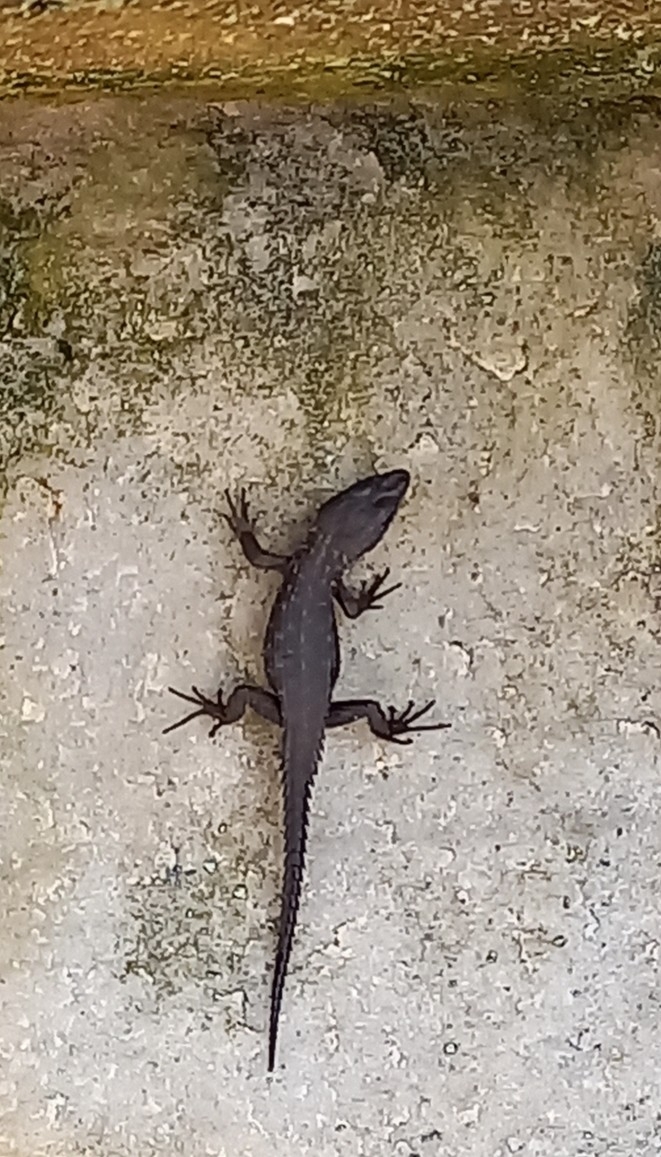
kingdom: Animalia
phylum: Chordata
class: Squamata
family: Cordylidae
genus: Cordylus
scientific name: Cordylus niger
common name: Black girdled lizard
